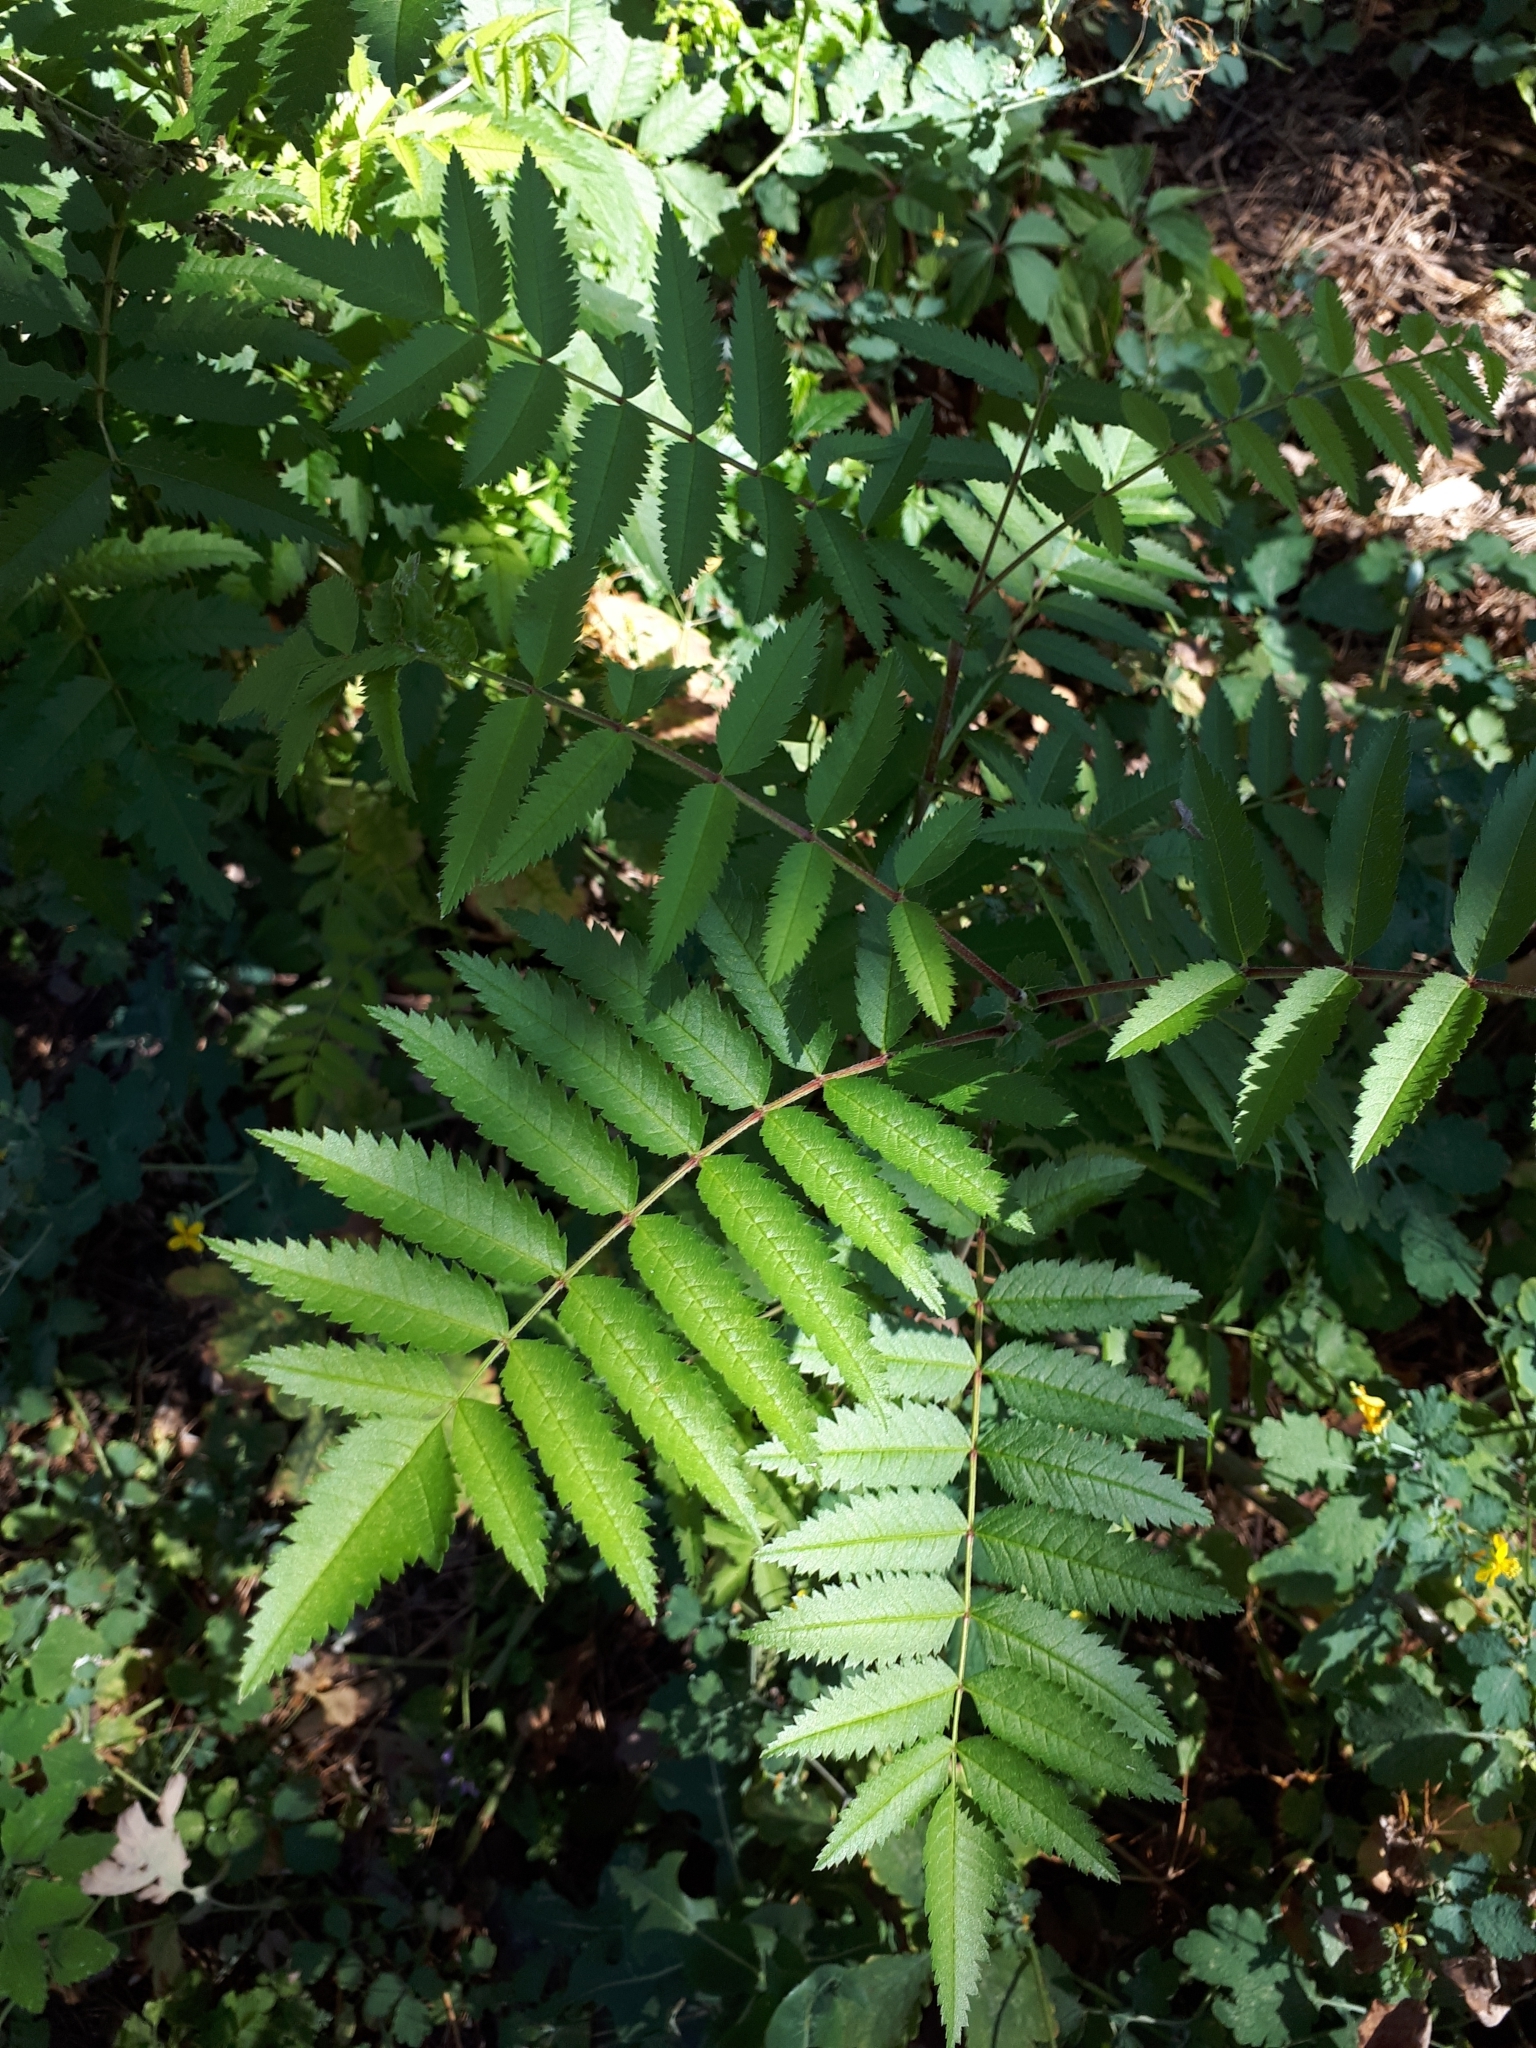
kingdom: Plantae
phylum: Tracheophyta
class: Magnoliopsida
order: Rosales
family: Rosaceae
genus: Sorbus
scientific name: Sorbus aucuparia
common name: Rowan
